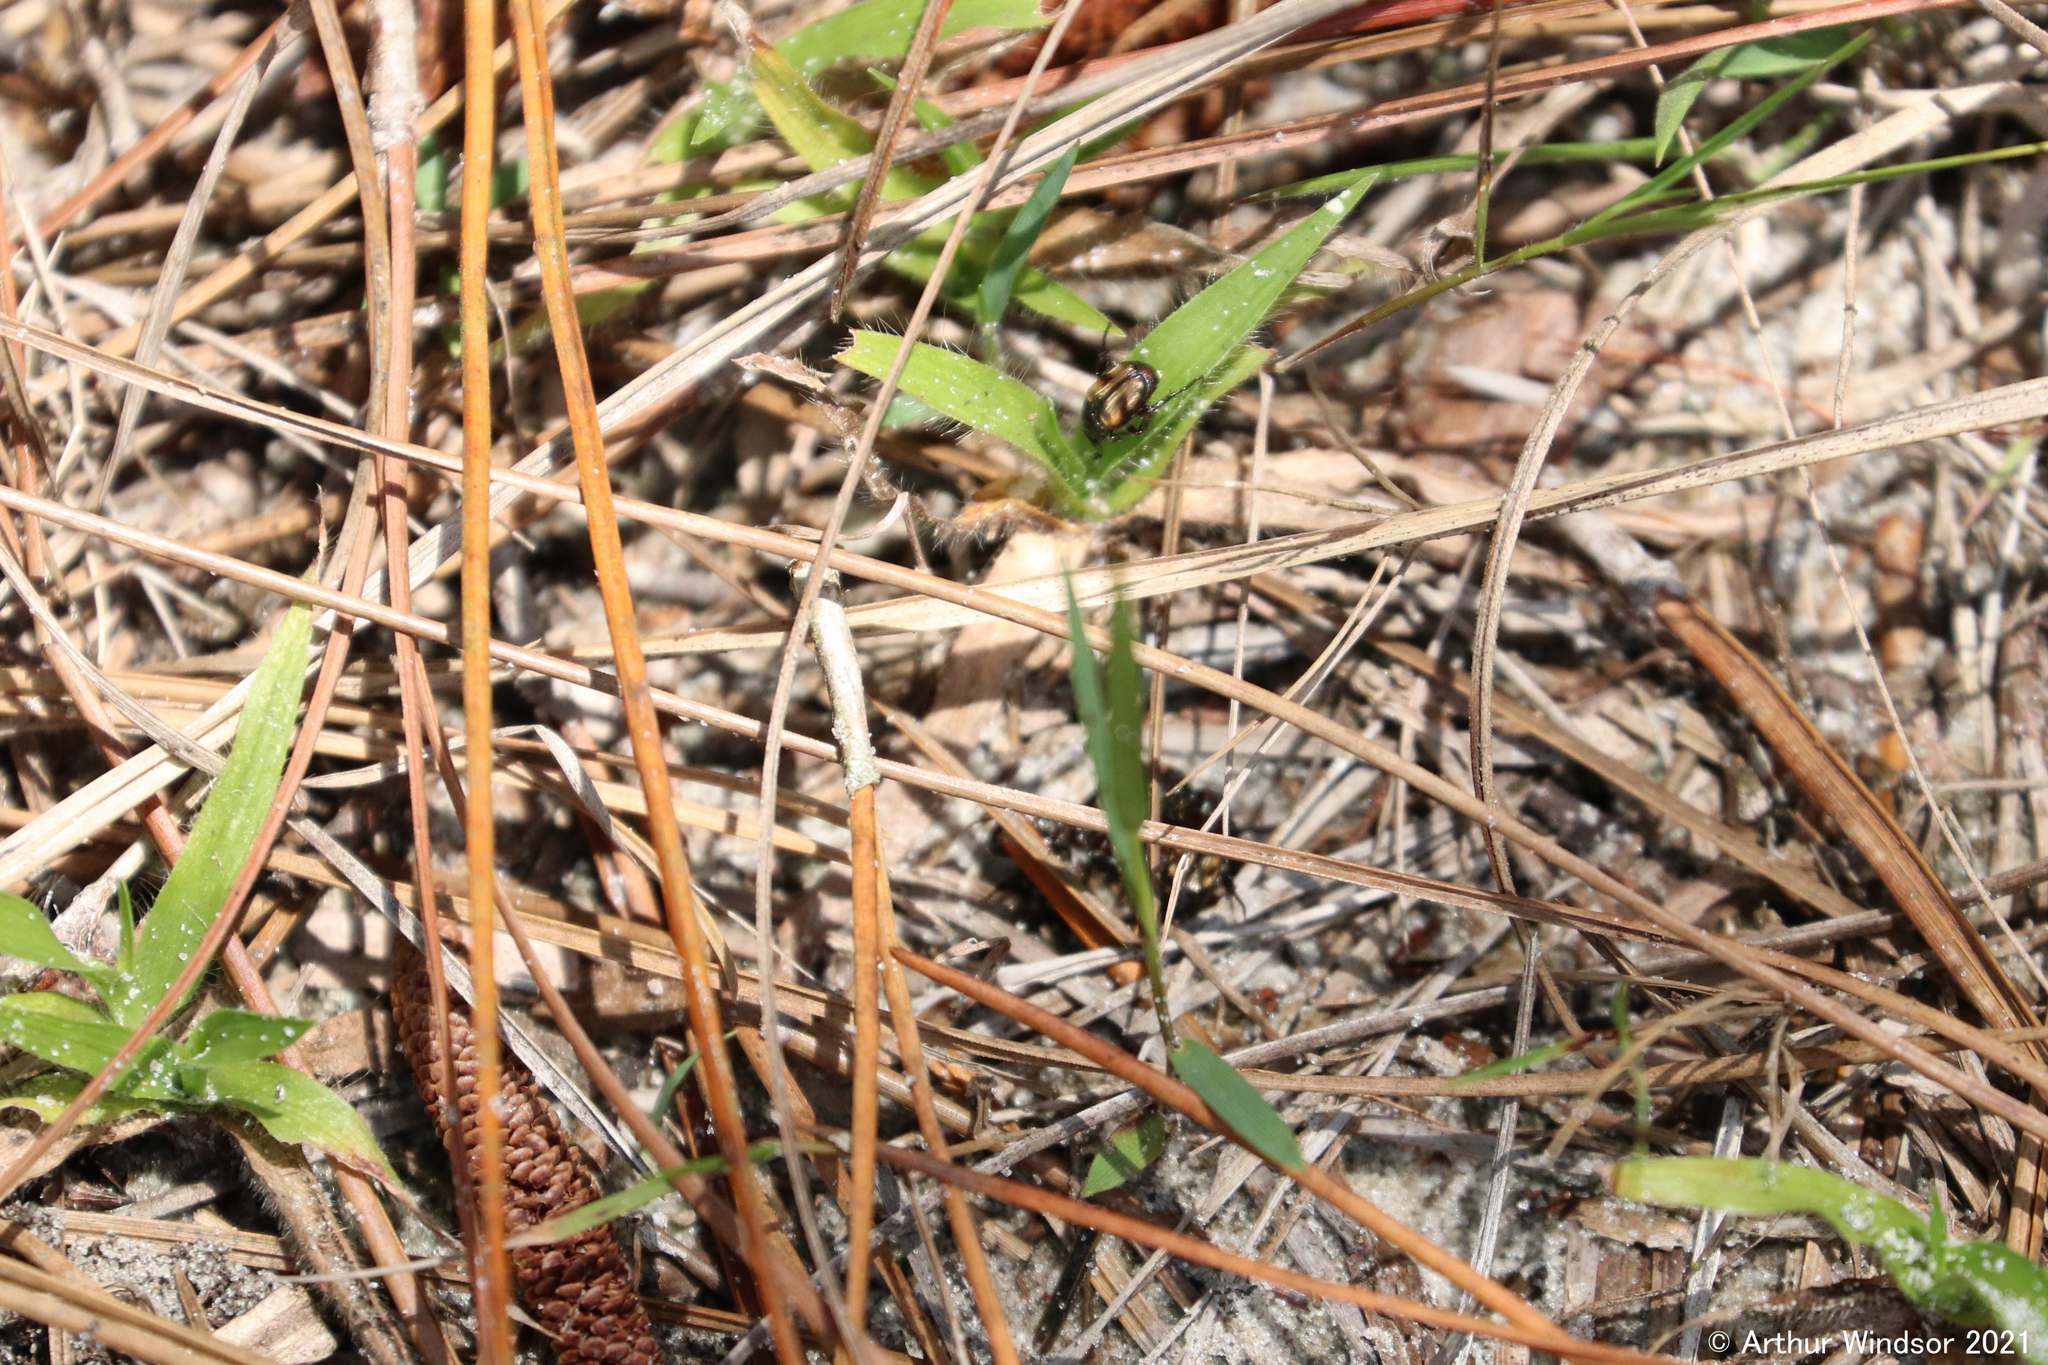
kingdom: Animalia
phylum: Arthropoda
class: Insecta
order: Coleoptera
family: Scarabaeidae
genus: Strigoderma
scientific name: Strigoderma pygmaea
